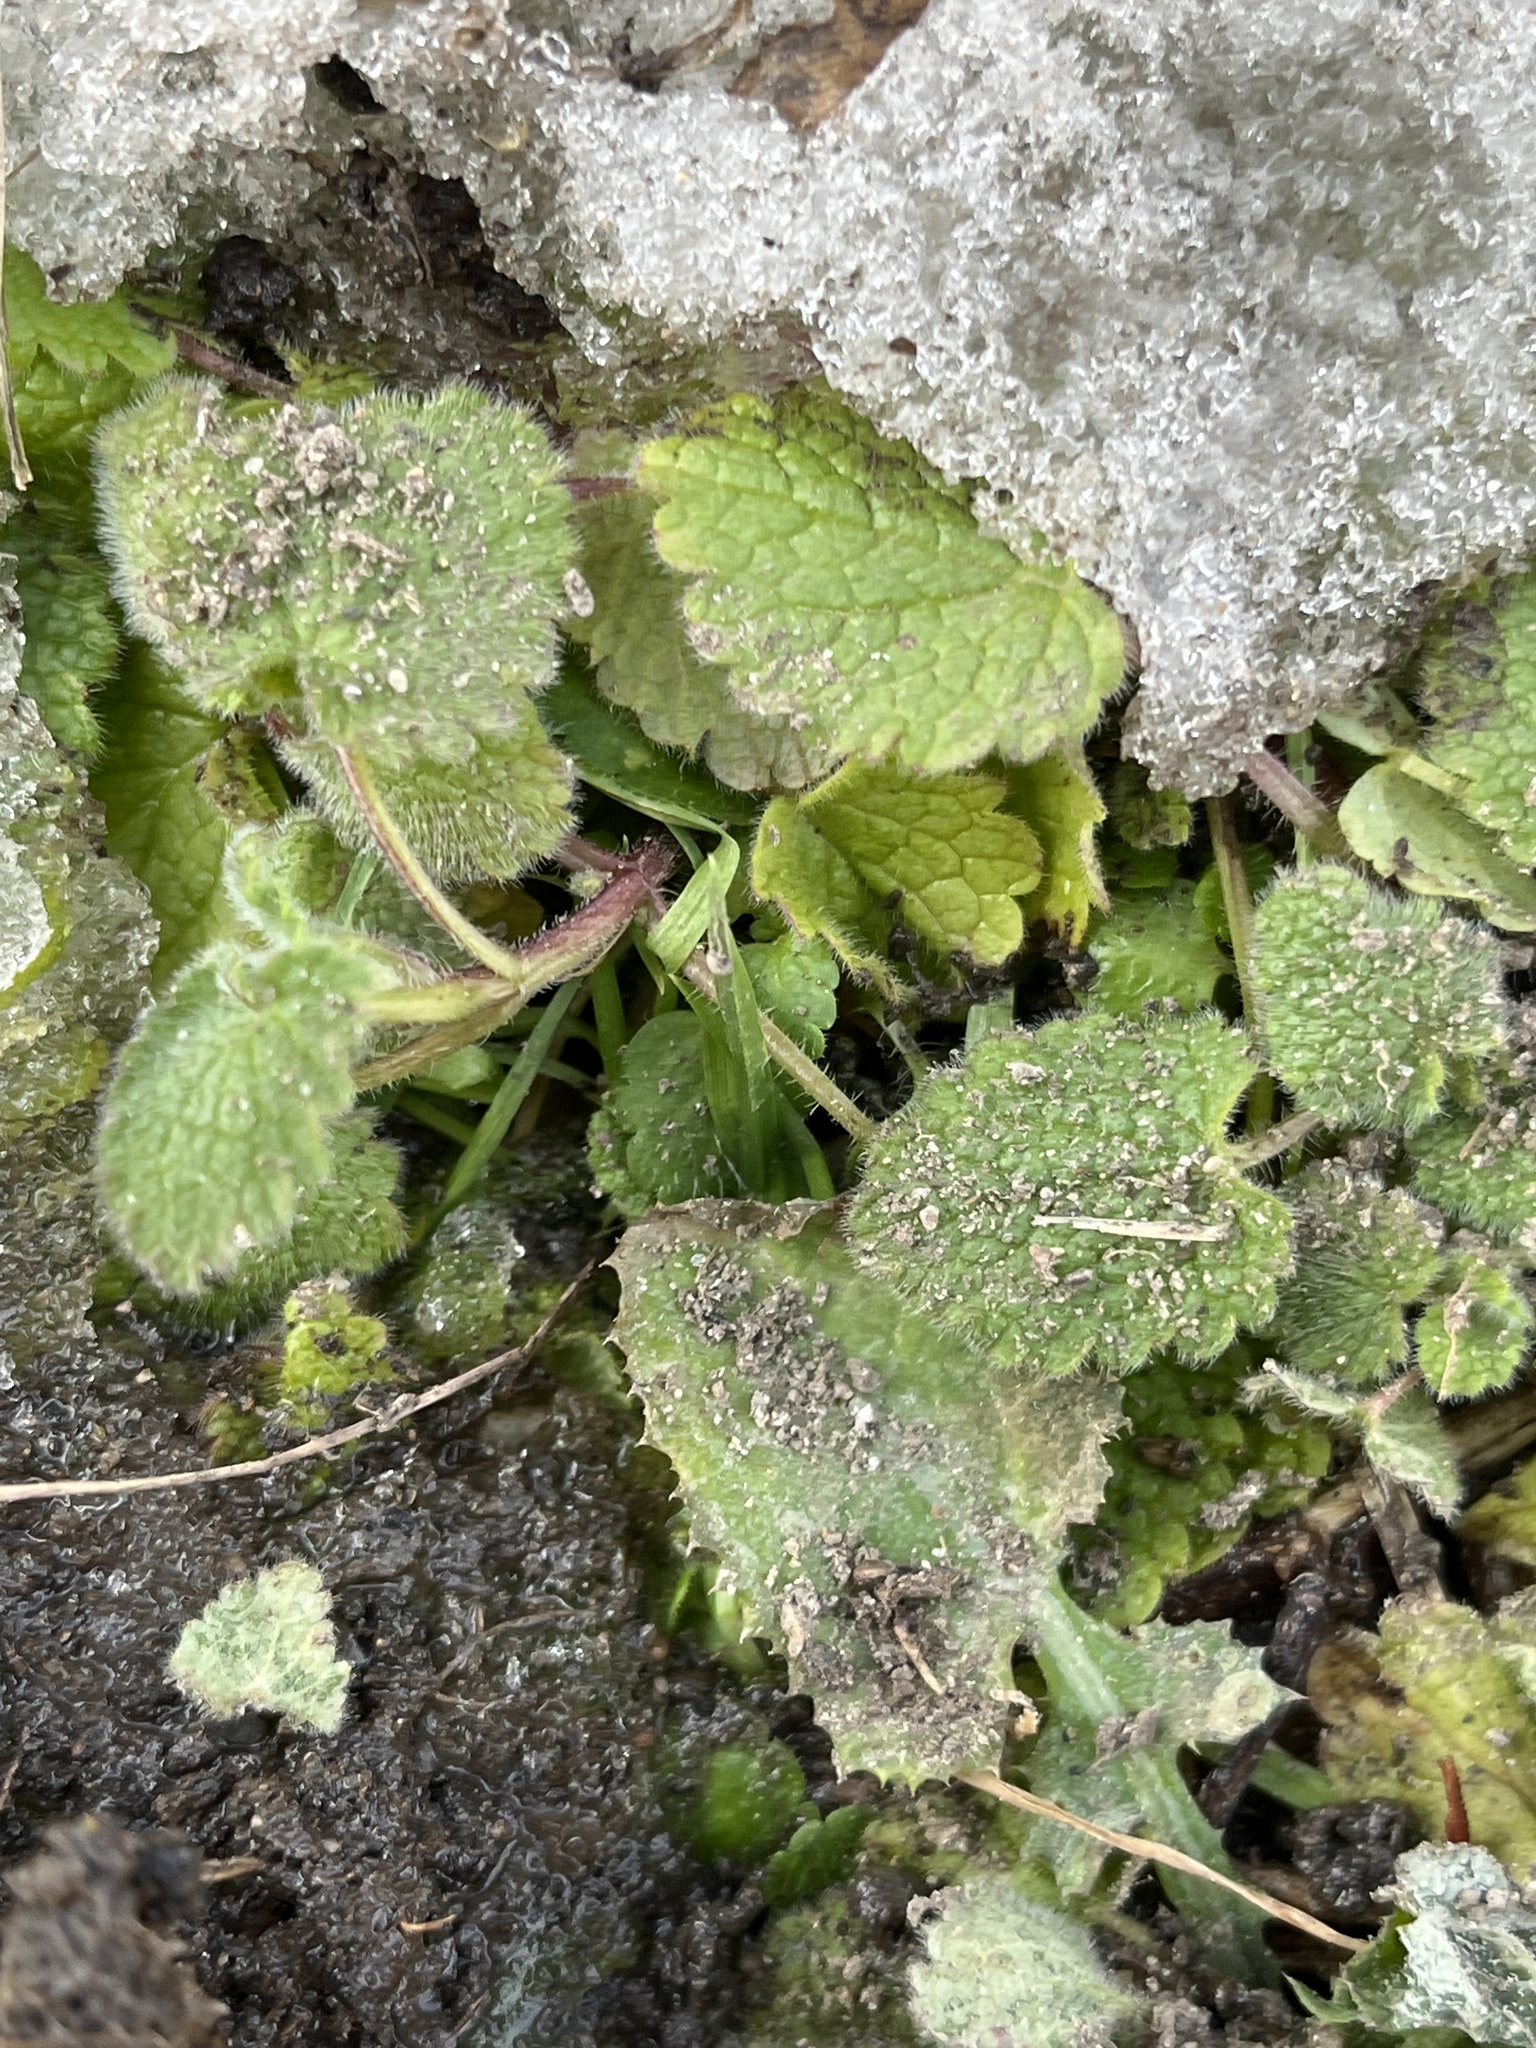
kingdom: Plantae
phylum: Tracheophyta
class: Magnoliopsida
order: Lamiales
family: Lamiaceae
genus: Lamium
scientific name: Lamium purpureum
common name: Red dead-nettle
